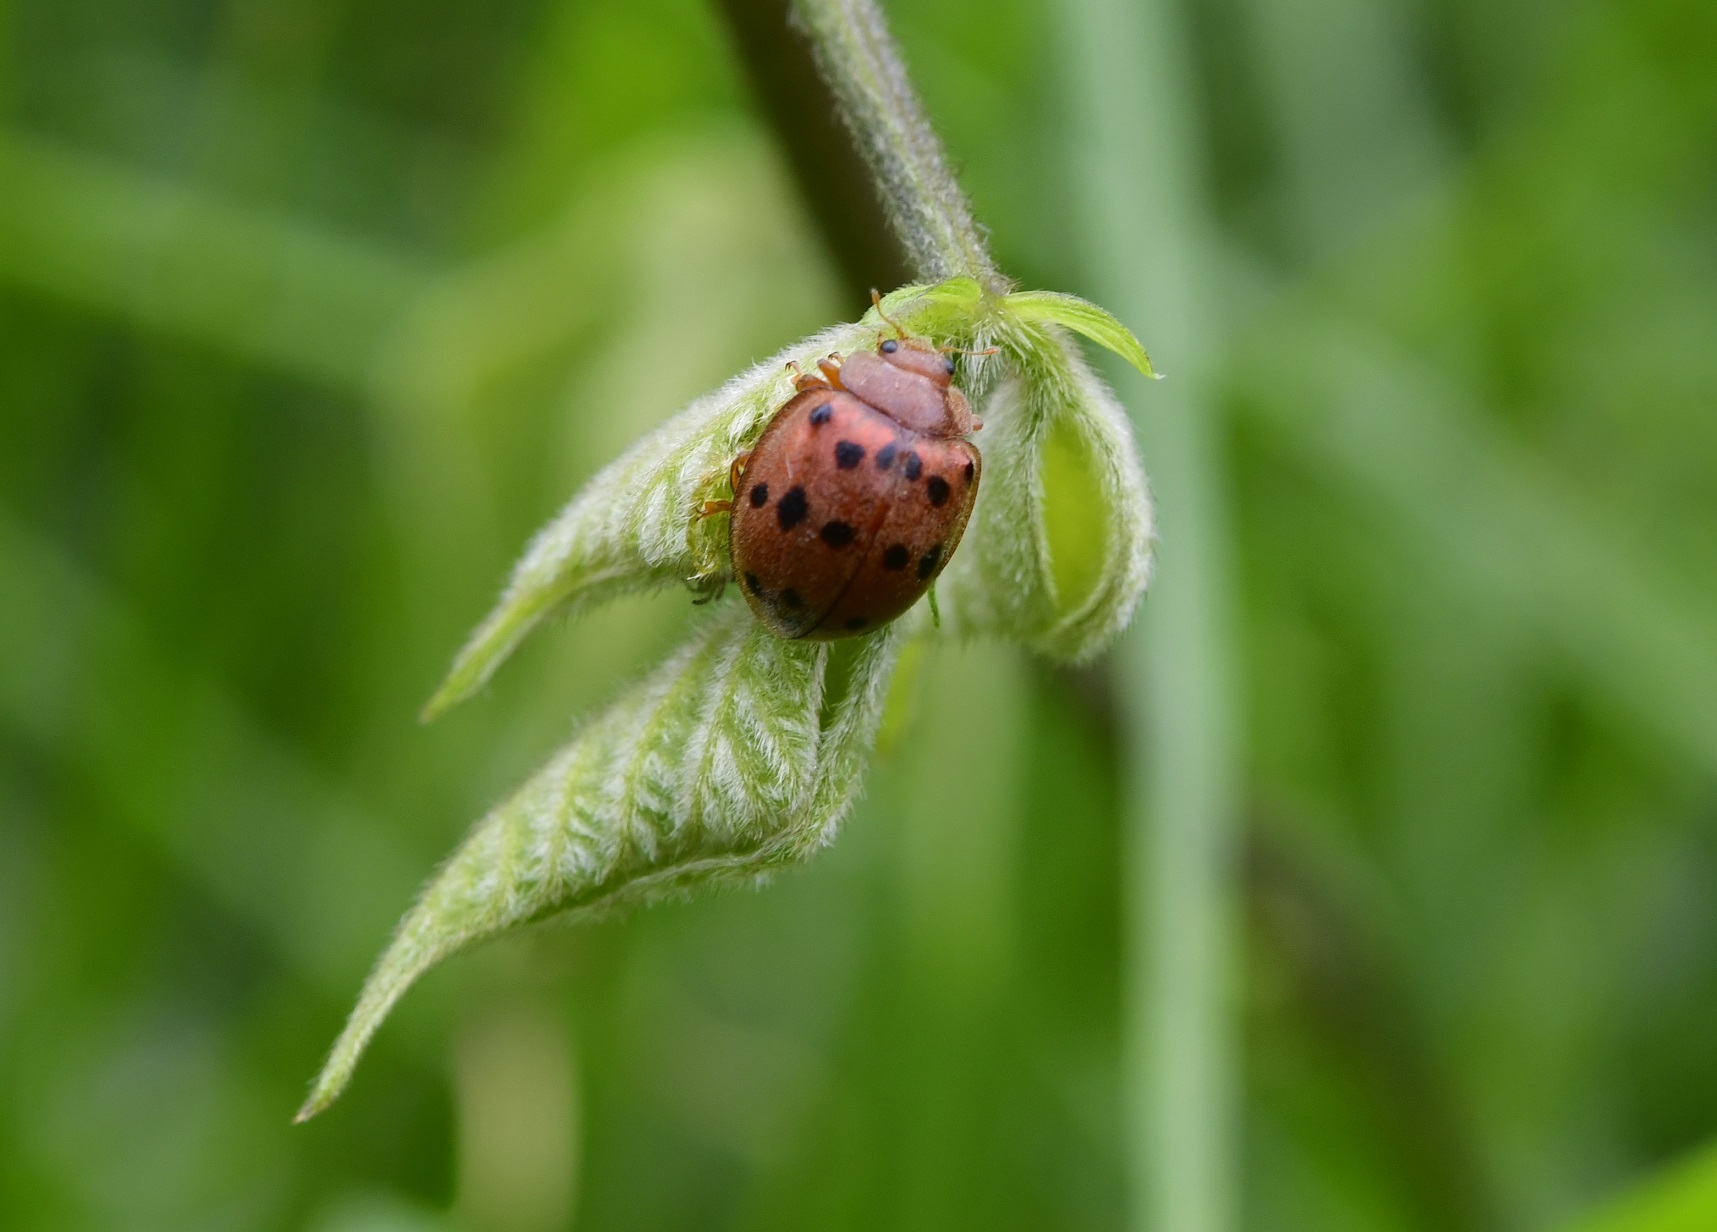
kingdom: Animalia
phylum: Arthropoda
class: Insecta
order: Coleoptera
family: Coccinellidae
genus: Epilachna
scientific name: Epilachna varivestis
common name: Ladybird beetle
